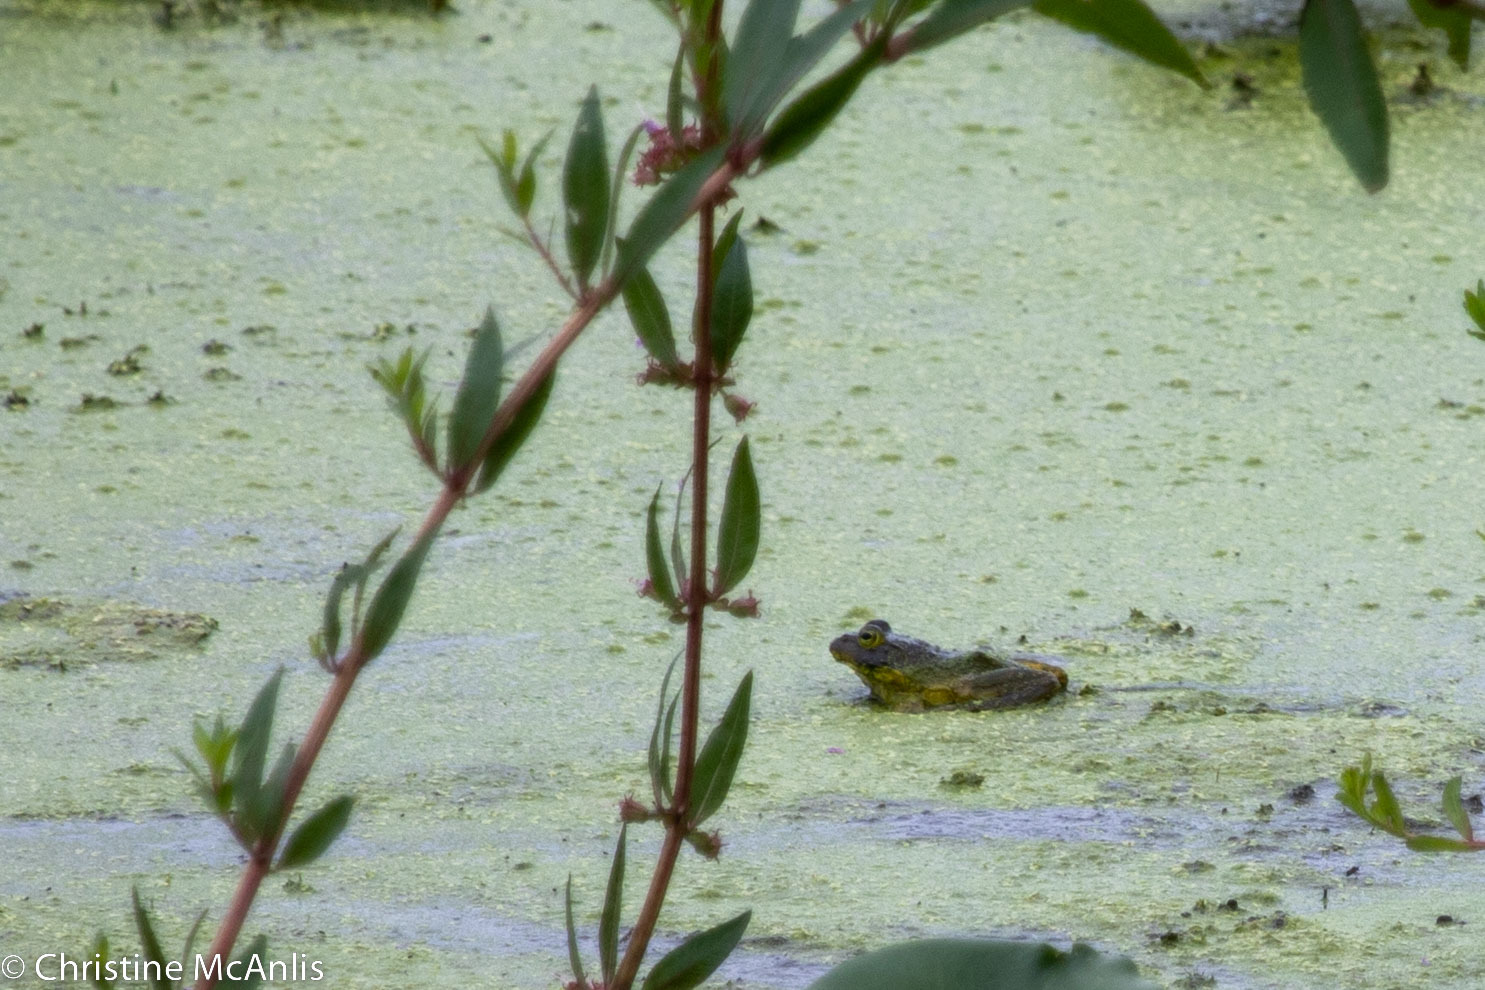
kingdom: Animalia
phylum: Chordata
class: Amphibia
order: Anura
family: Ranidae
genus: Lithobates
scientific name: Lithobates catesbeianus
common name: American bullfrog
